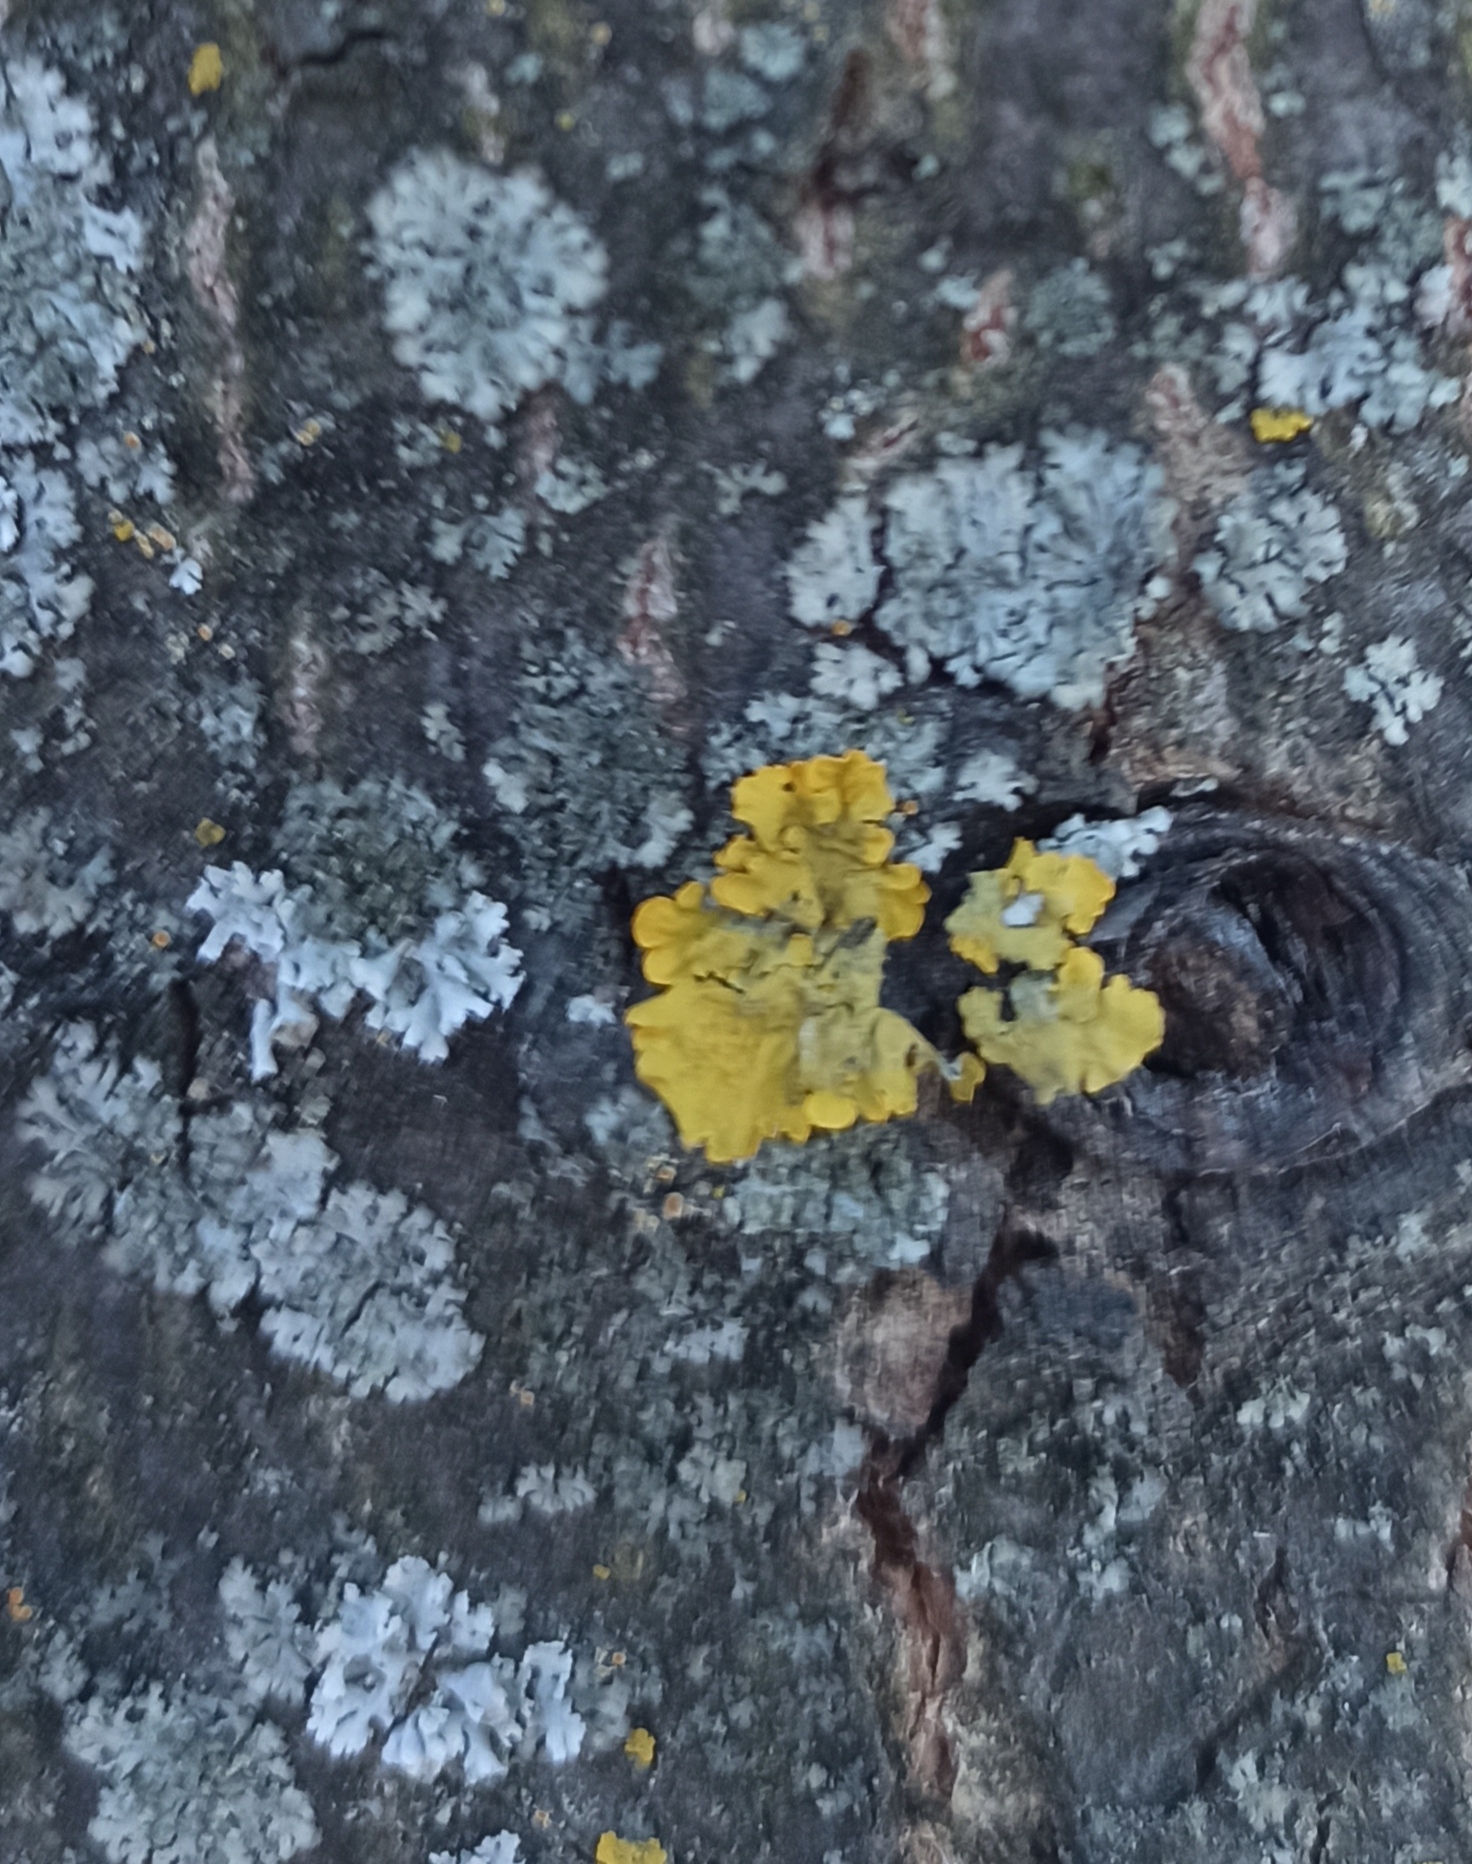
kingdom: Fungi
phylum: Ascomycota
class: Lecanoromycetes
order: Teloschistales
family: Teloschistaceae
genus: Xanthoria
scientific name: Xanthoria parietina
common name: Common orange lichen
